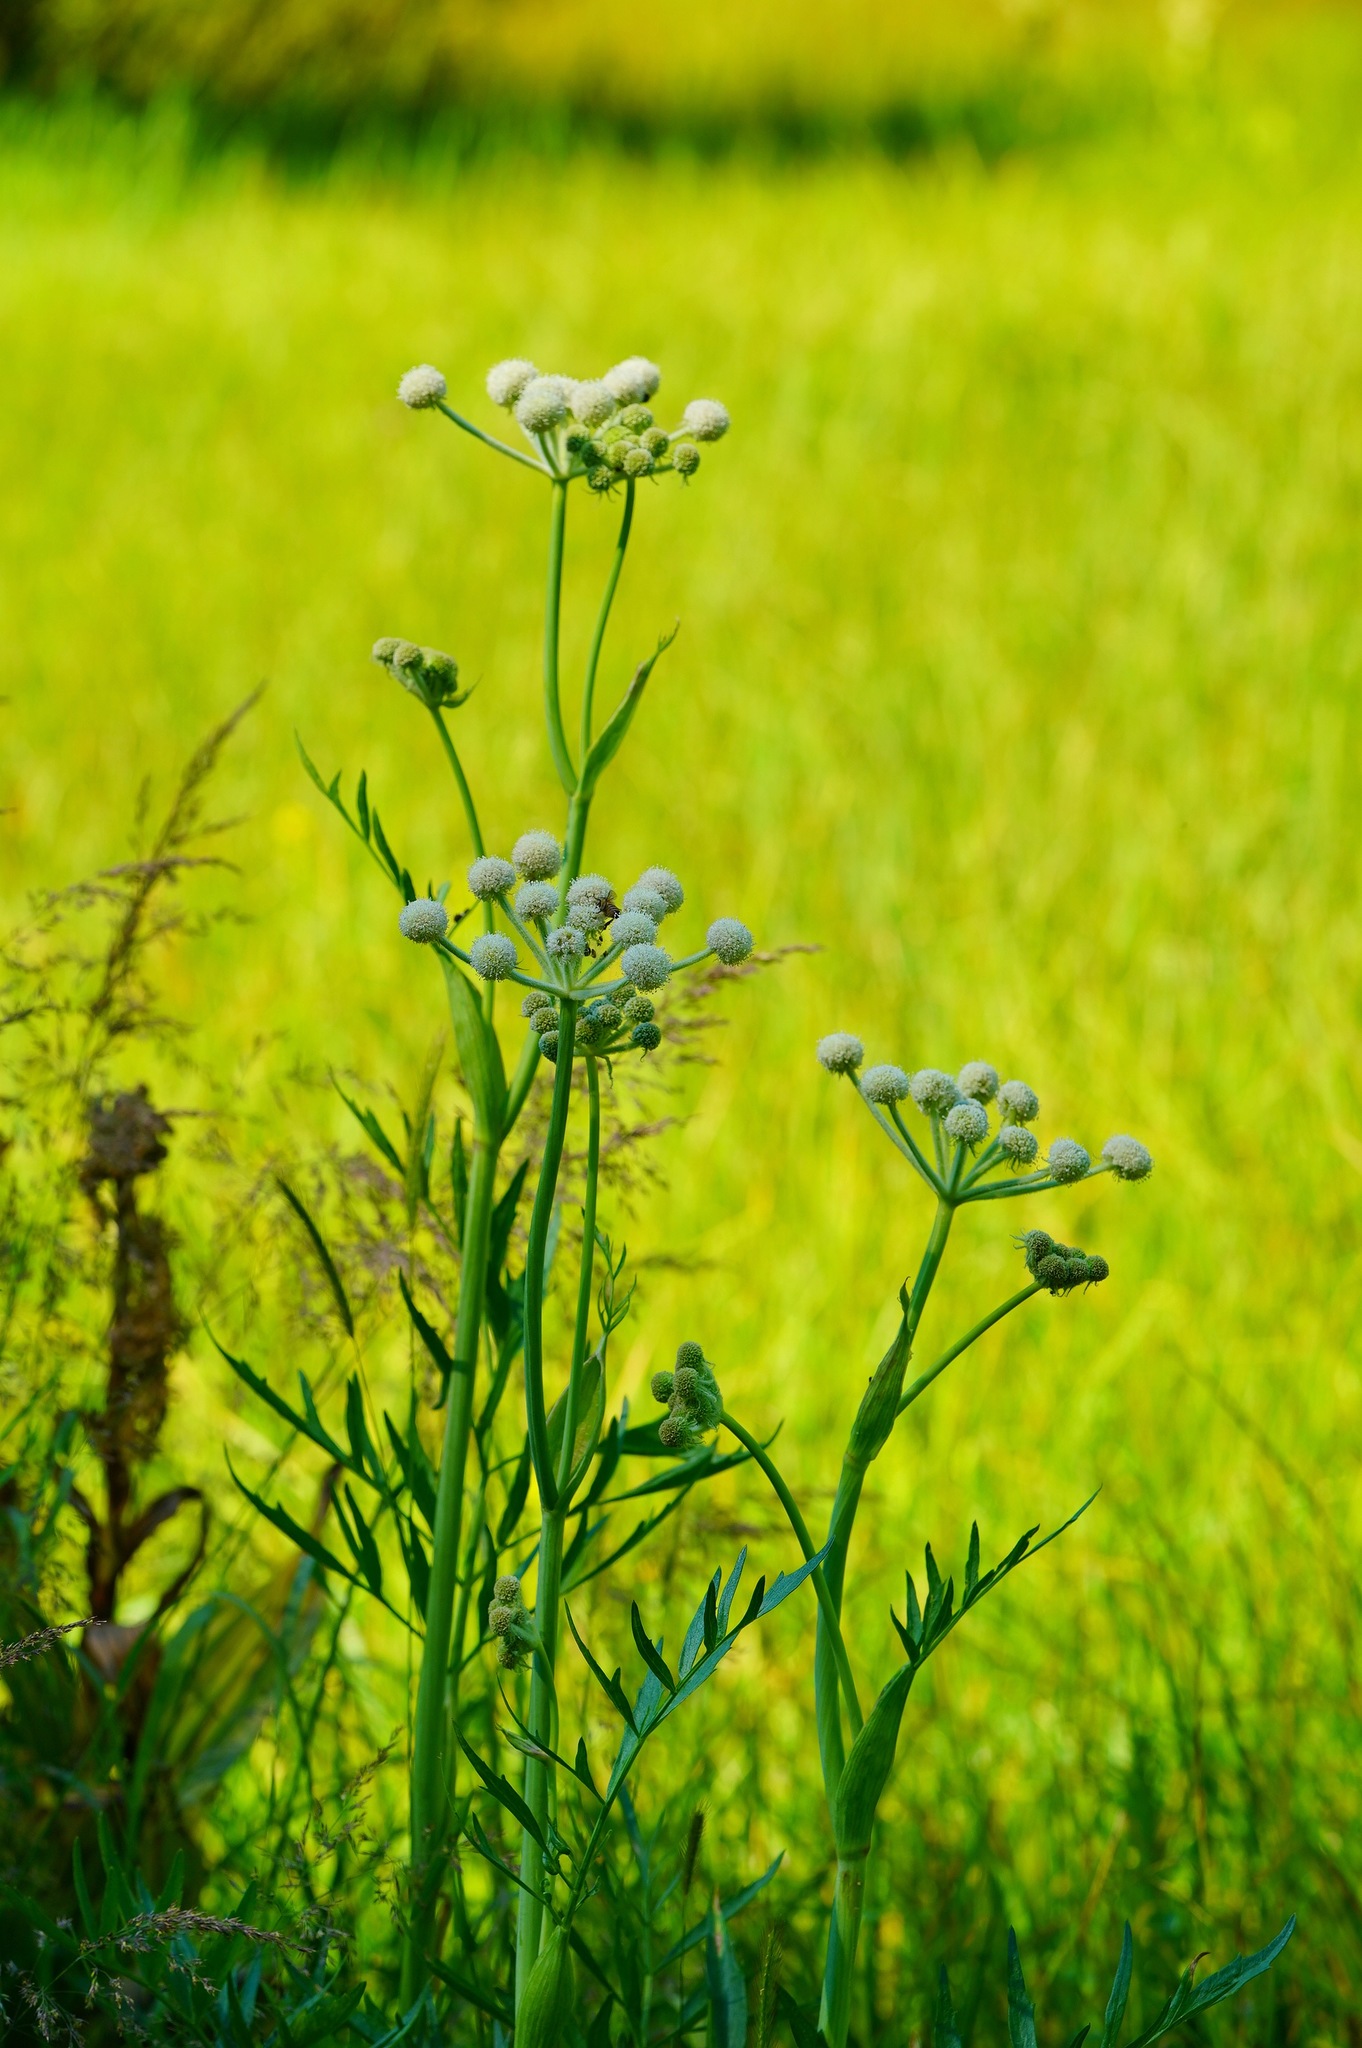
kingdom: Plantae
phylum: Tracheophyta
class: Magnoliopsida
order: Apiales
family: Apiaceae
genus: Angelica
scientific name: Angelica capitellata
